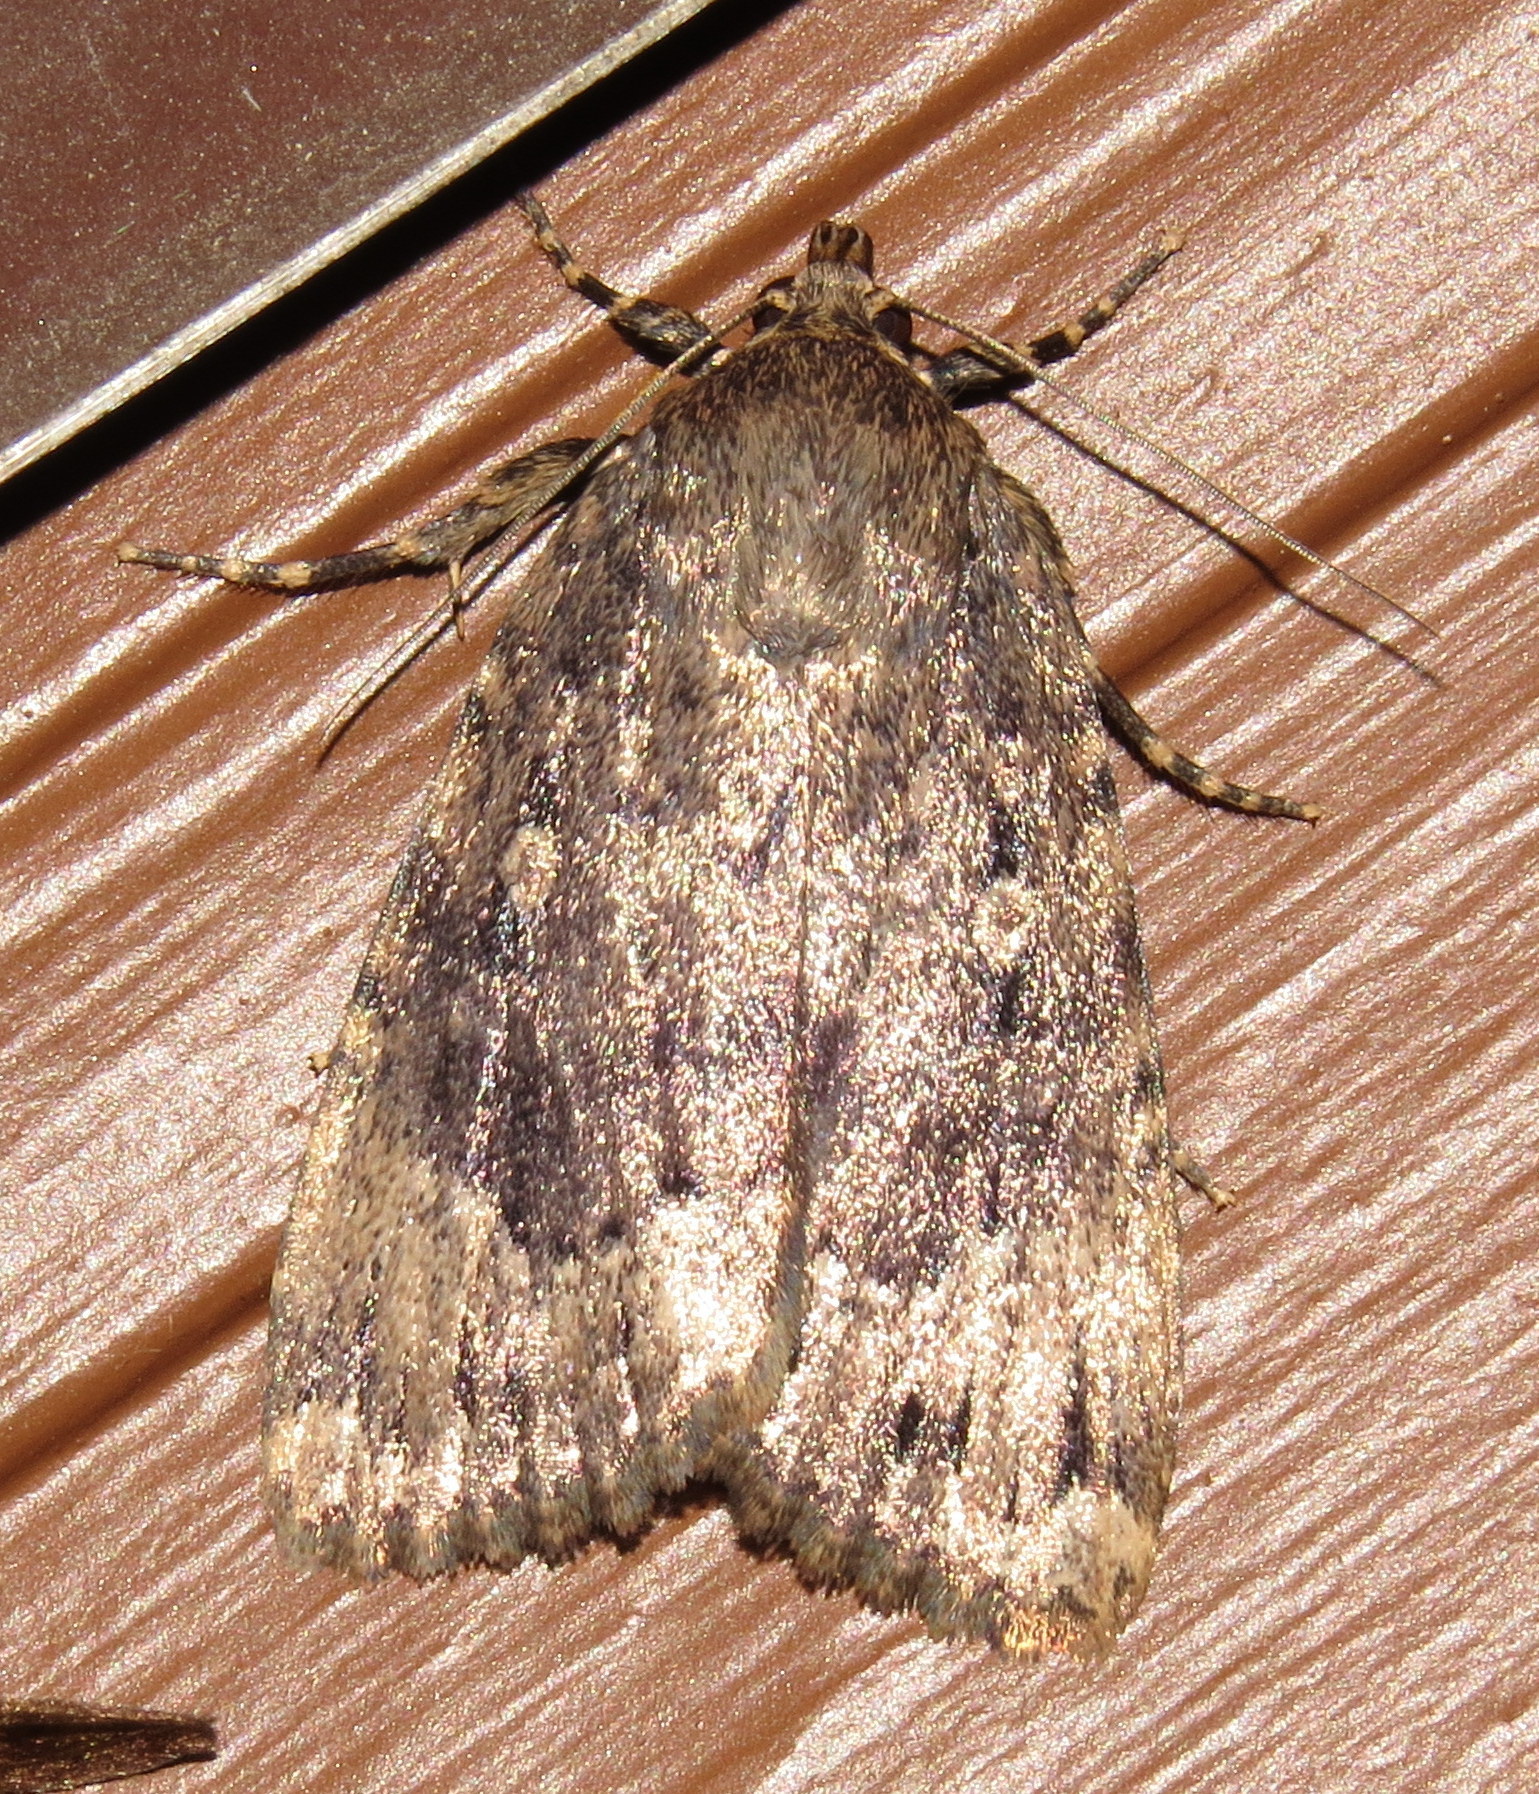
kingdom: Animalia
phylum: Arthropoda
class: Insecta
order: Lepidoptera
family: Noctuidae
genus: Amphipyra
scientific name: Amphipyra pyramidoides
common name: American copper underwing
